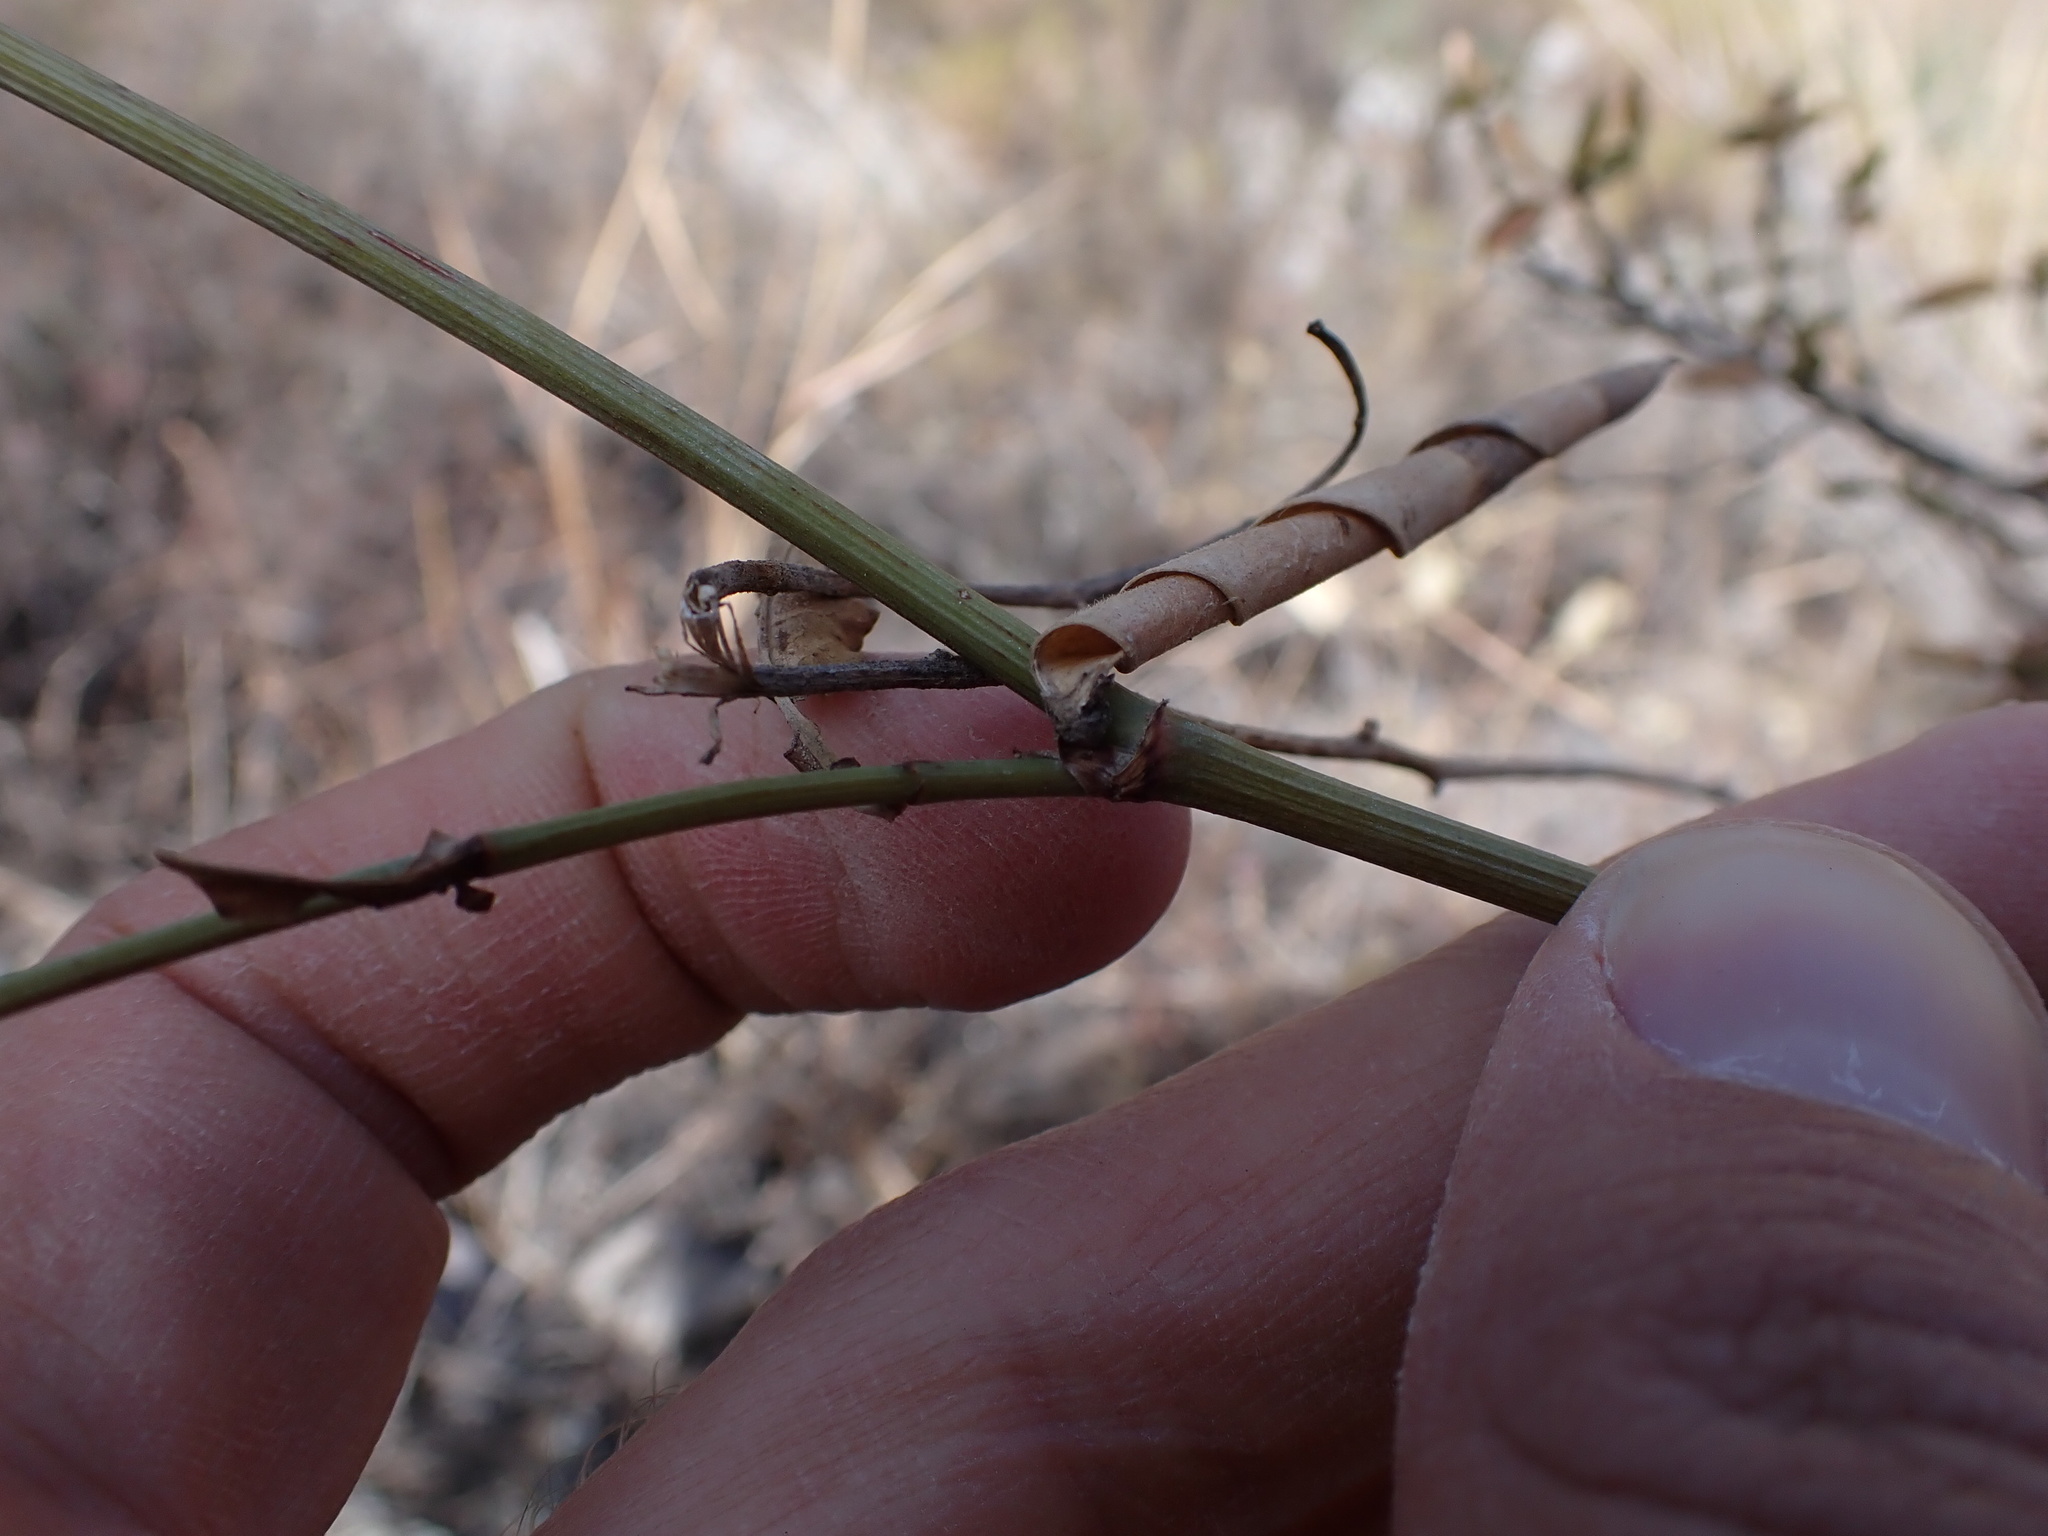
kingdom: Plantae
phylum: Tracheophyta
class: Magnoliopsida
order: Caryophyllales
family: Plumbaginaceae
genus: Plumbago
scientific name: Plumbago caerulea
